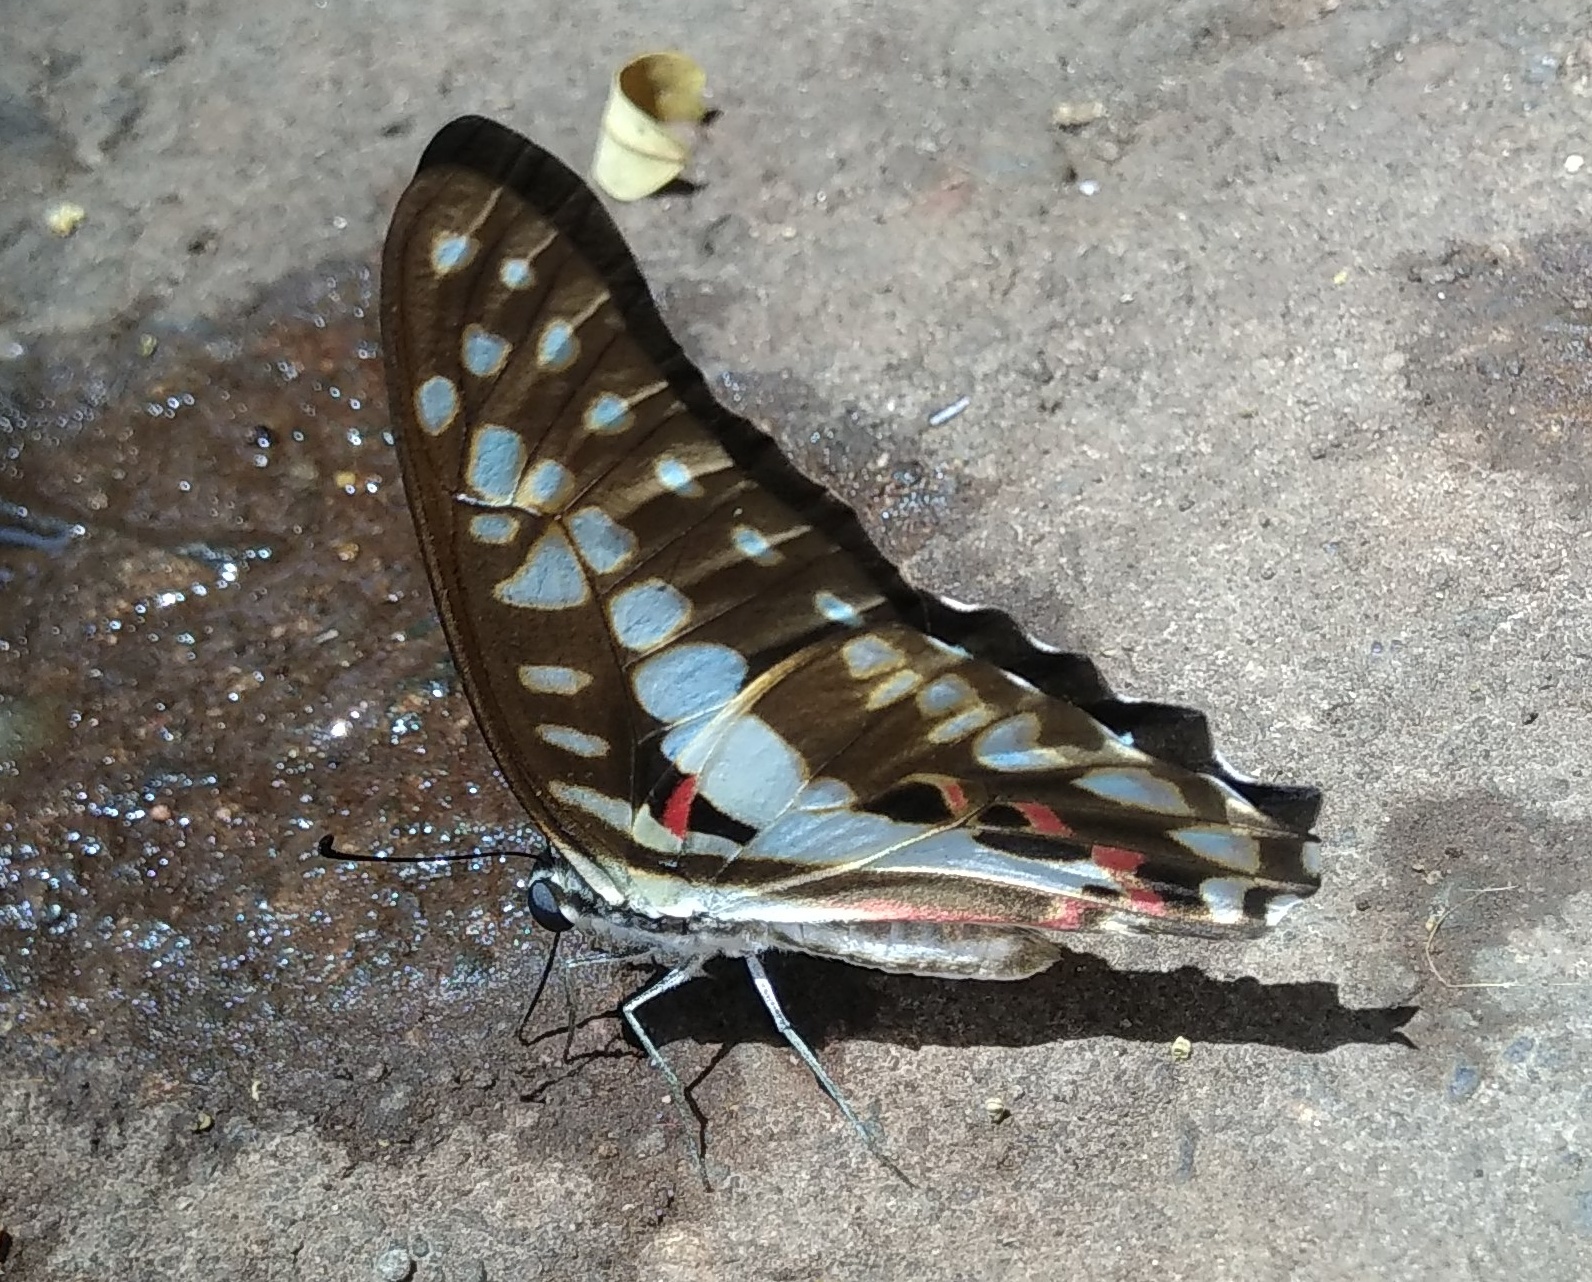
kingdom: Animalia
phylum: Arthropoda
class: Insecta
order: Lepidoptera
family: Papilionidae
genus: Graphium
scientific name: Graphium doson
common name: Common jay
